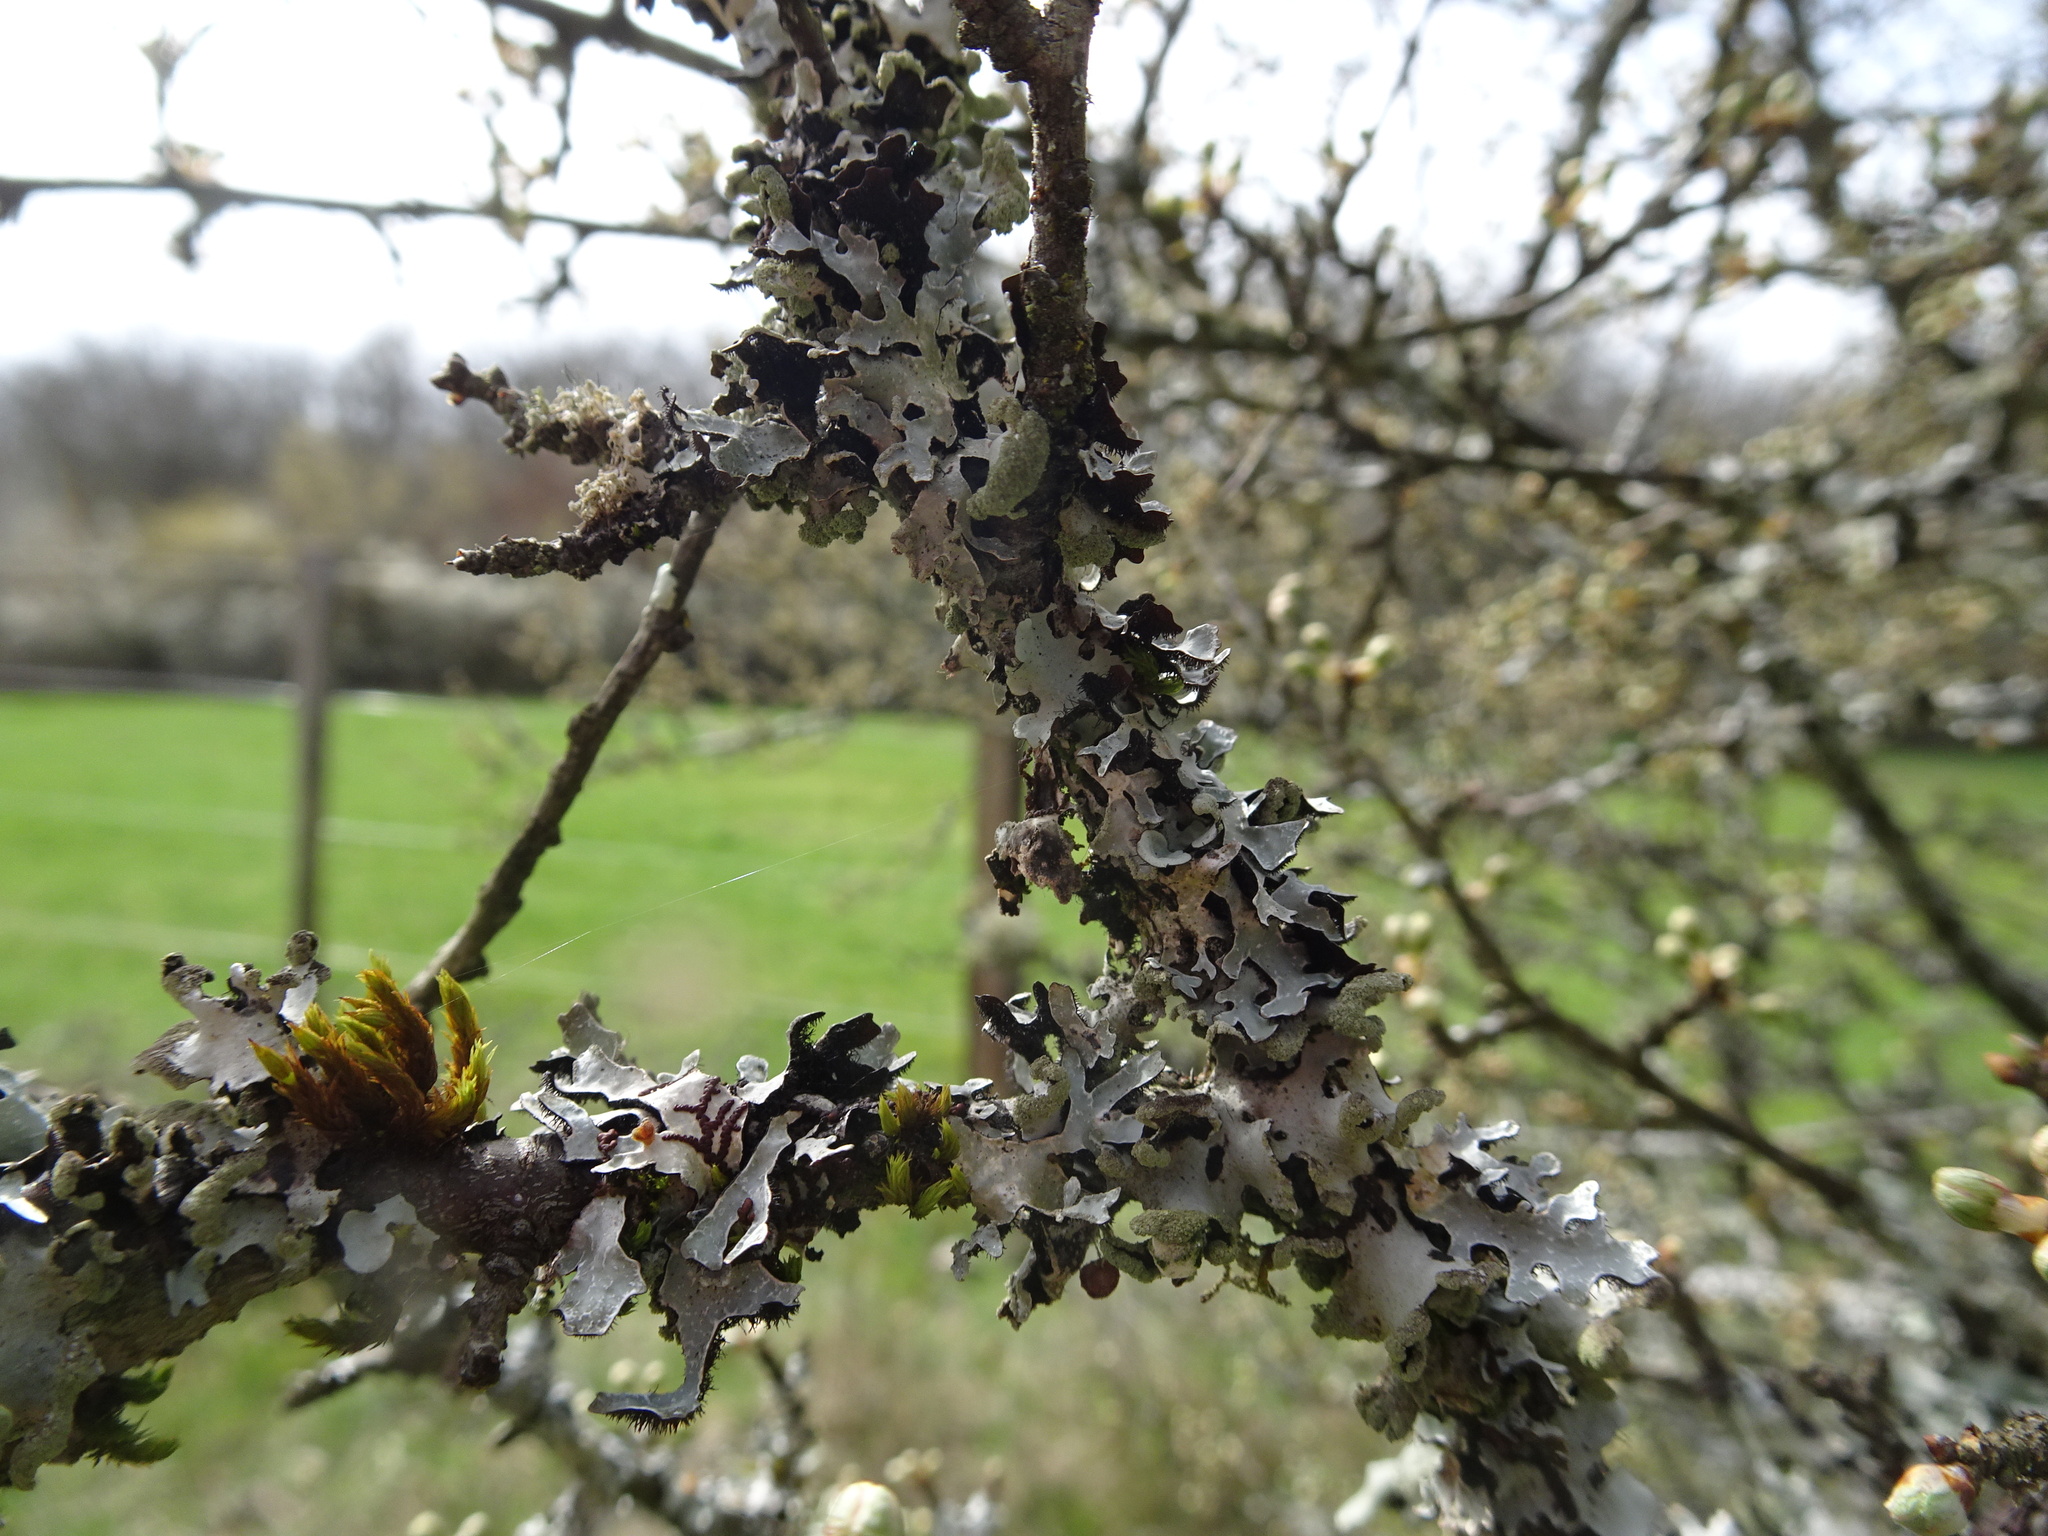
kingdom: Fungi
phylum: Ascomycota
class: Lecanoromycetes
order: Lecanorales
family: Parmeliaceae
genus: Hypotrachyna
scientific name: Hypotrachyna revoluta
